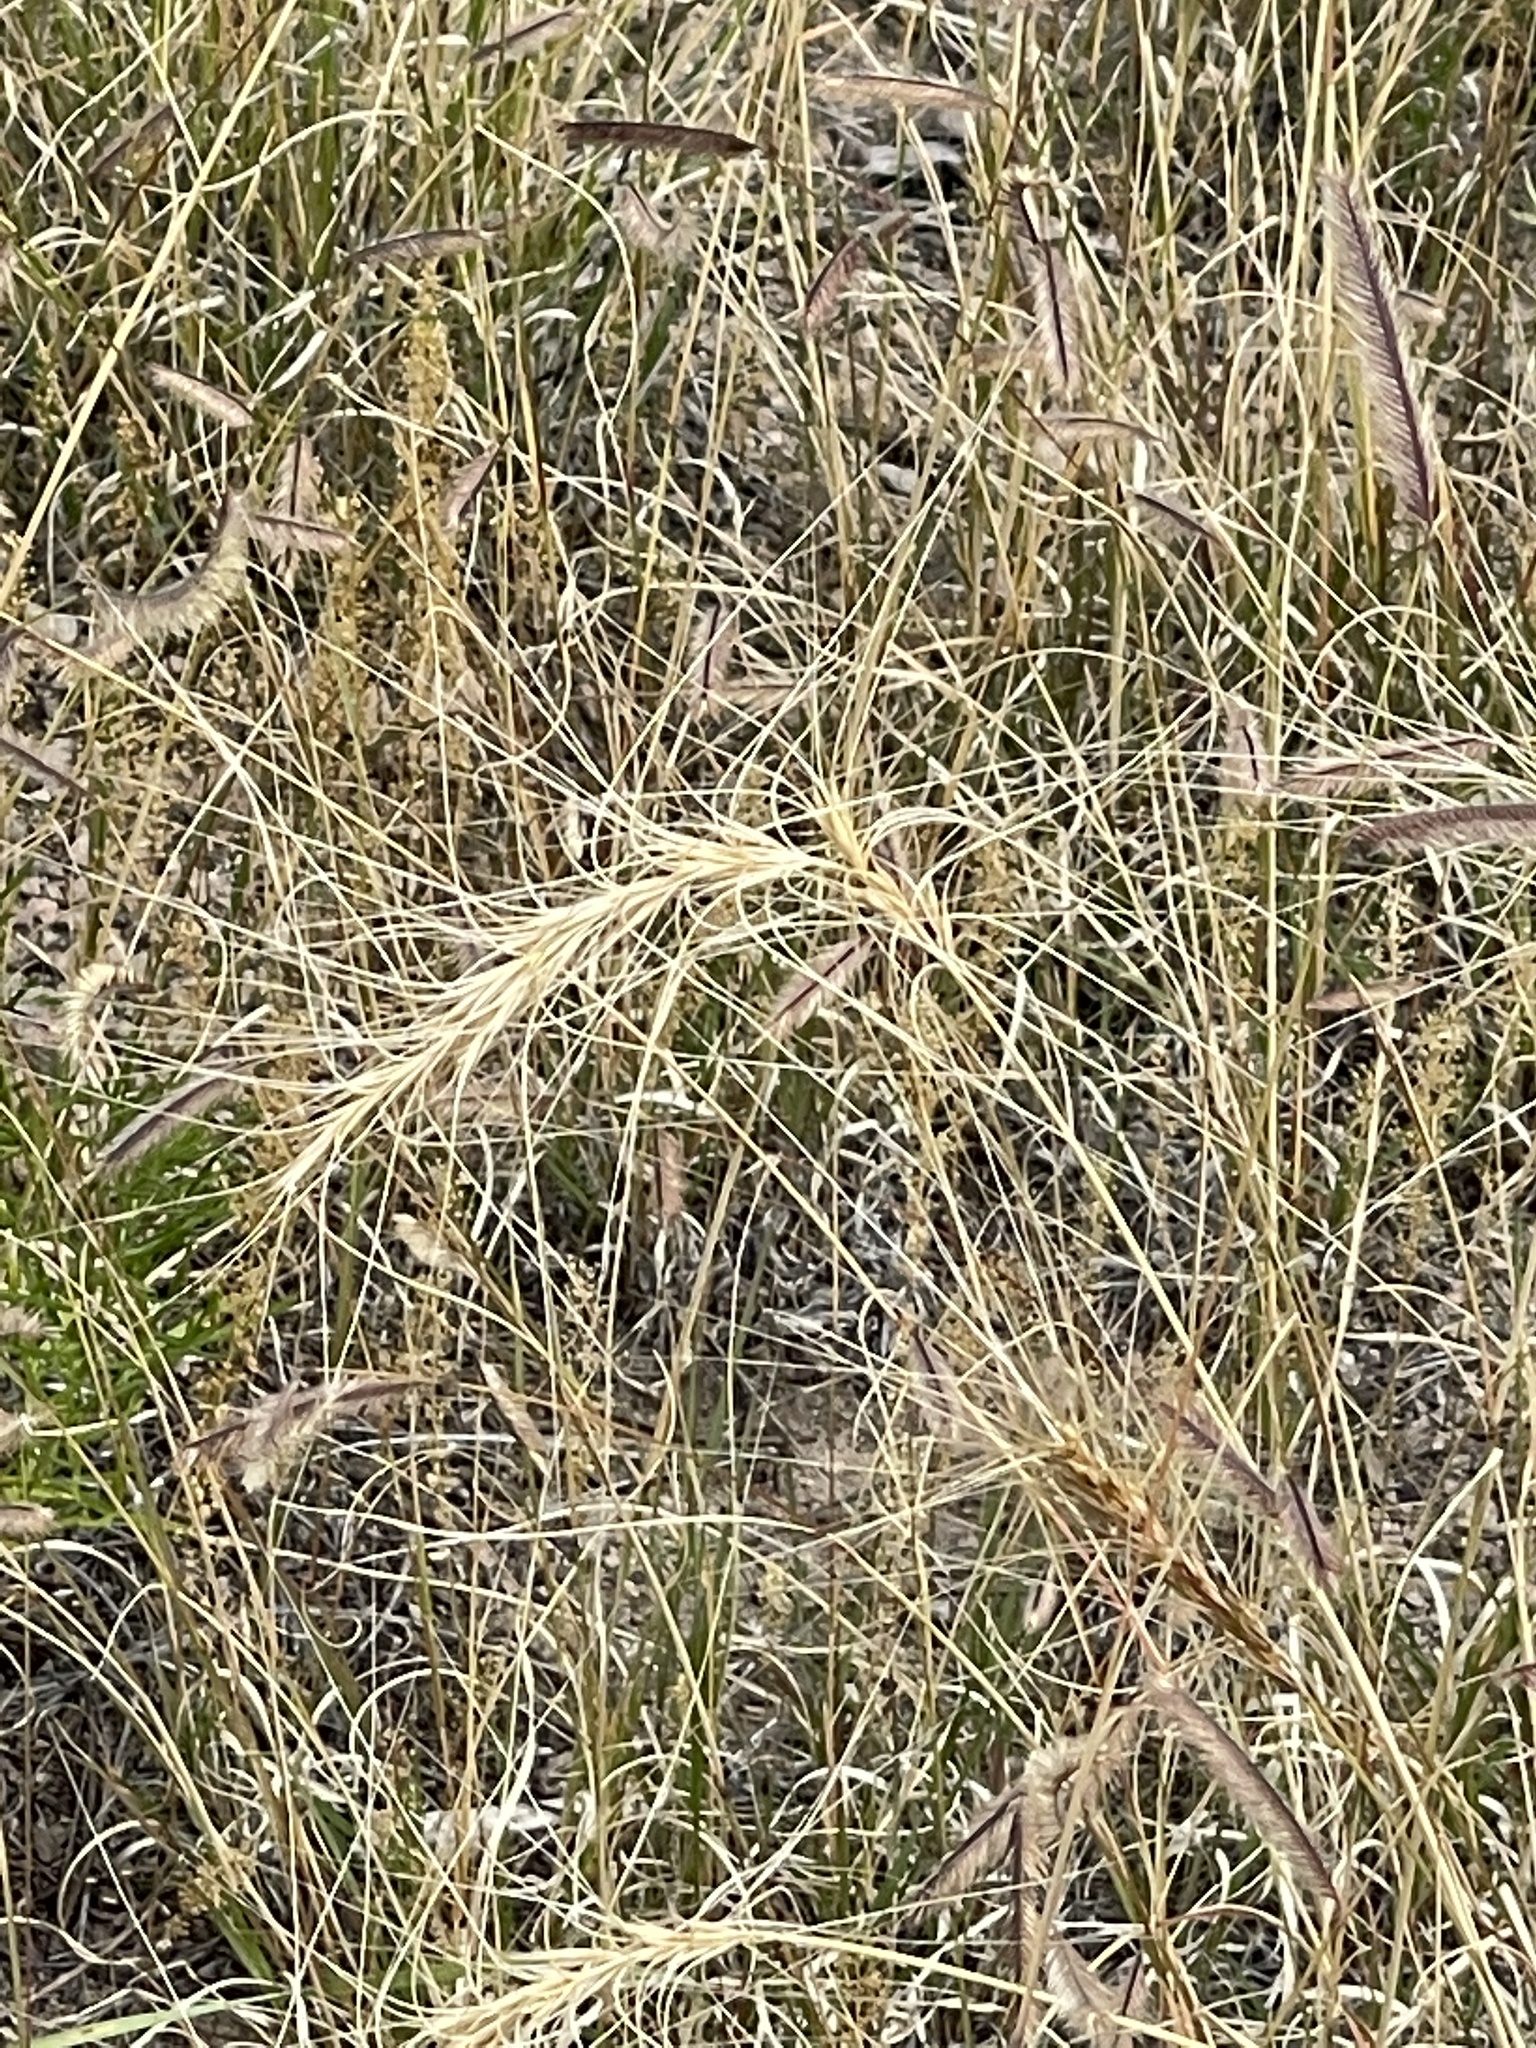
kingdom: Plantae
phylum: Tracheophyta
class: Liliopsida
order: Poales
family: Poaceae
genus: Elymus
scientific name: Elymus elymoides
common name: Bottlebrush squirreltail
